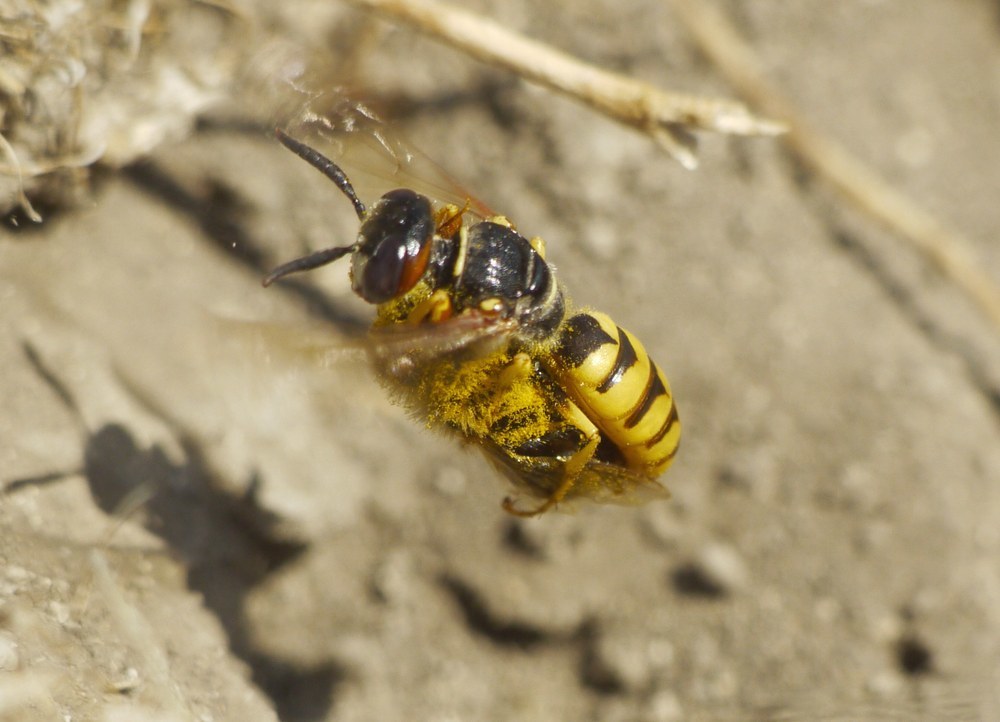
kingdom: Animalia
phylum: Arthropoda
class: Insecta
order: Hymenoptera
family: Crabronidae
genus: Philanthus
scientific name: Philanthus triangulum
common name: Bee wolf
